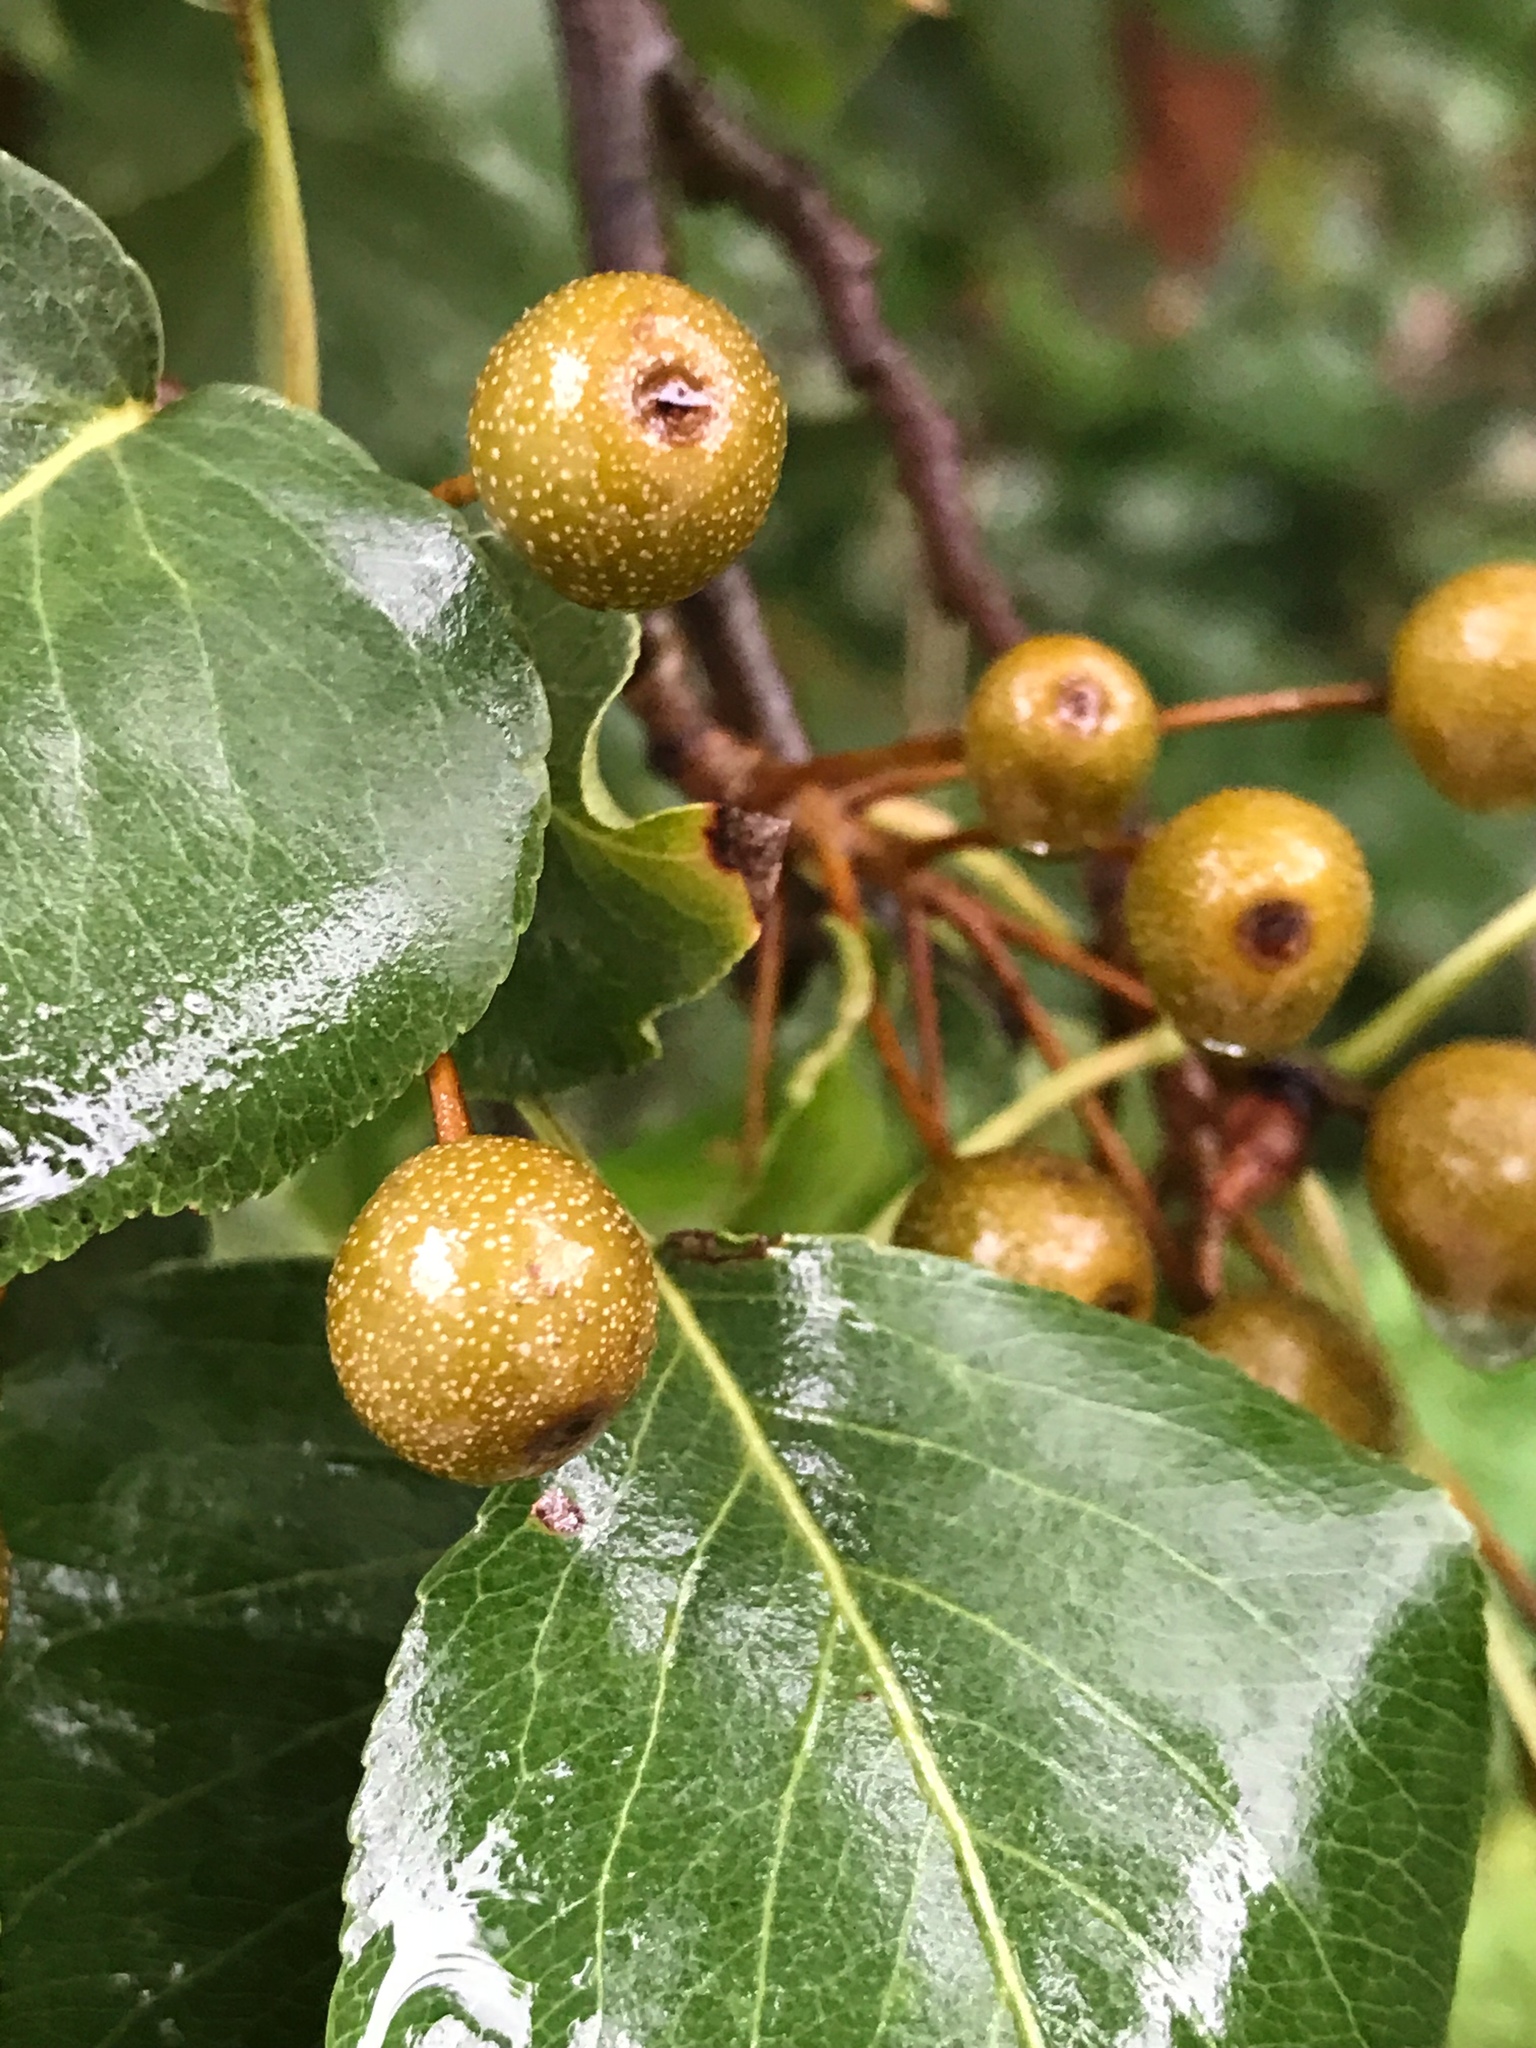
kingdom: Plantae
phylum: Tracheophyta
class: Magnoliopsida
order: Rosales
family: Rosaceae
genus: Pyrus
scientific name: Pyrus calleryana
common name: Callery pear
